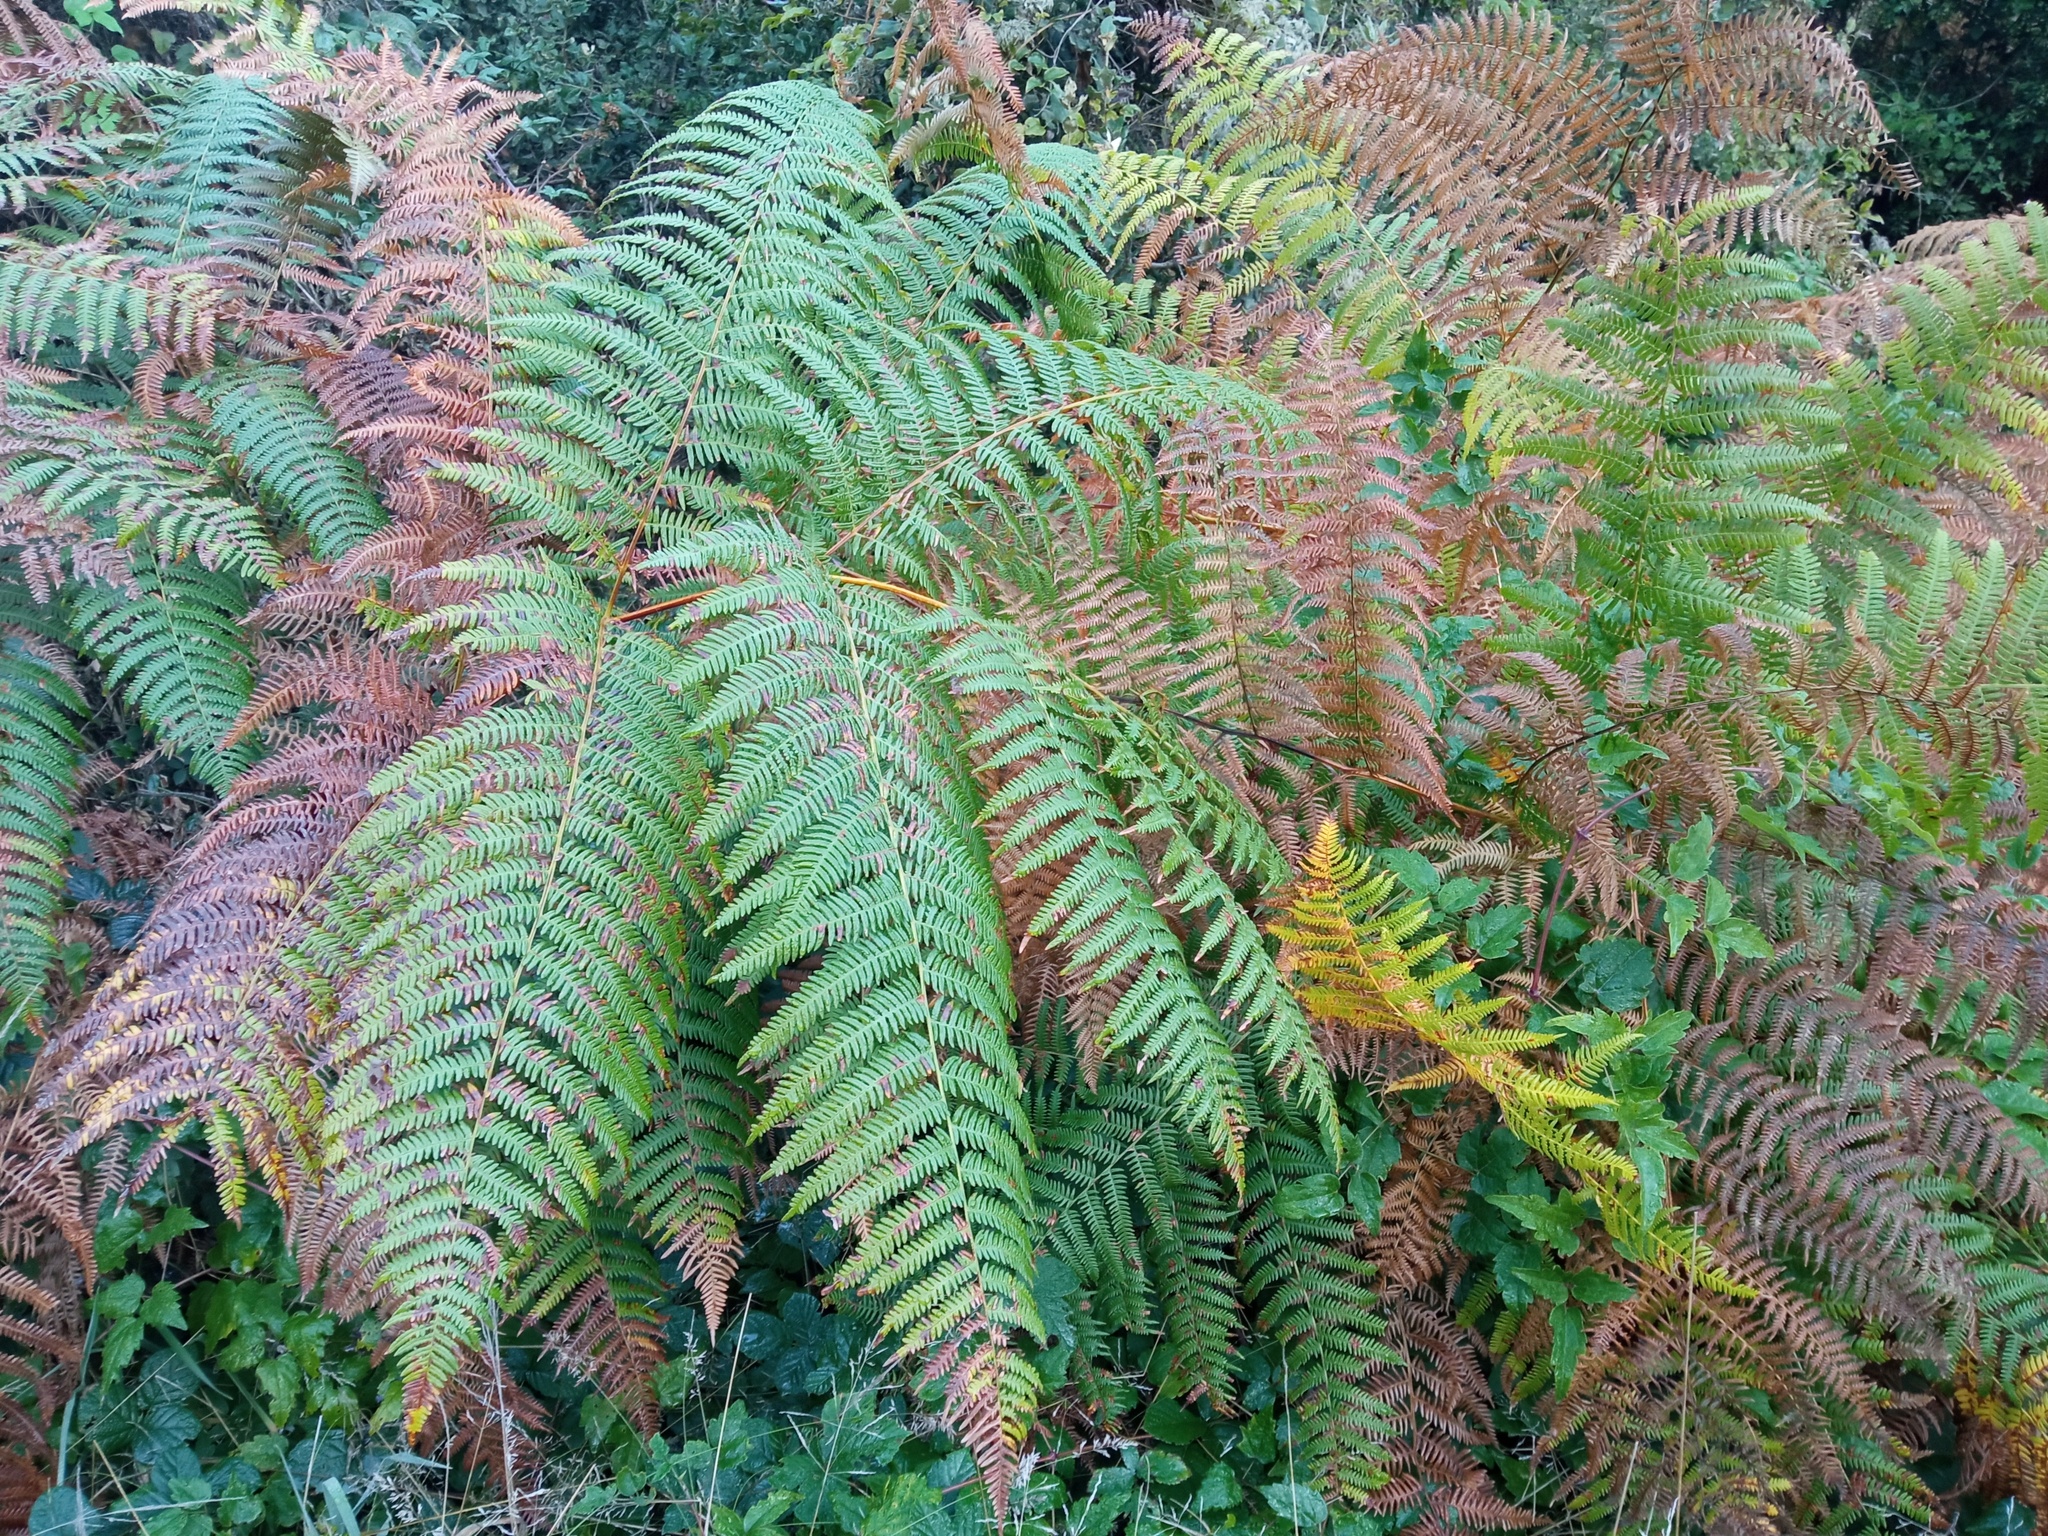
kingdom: Plantae
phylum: Tracheophyta
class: Polypodiopsida
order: Polypodiales
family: Dennstaedtiaceae
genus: Pteridium
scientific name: Pteridium aquilinum
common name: Bracken
